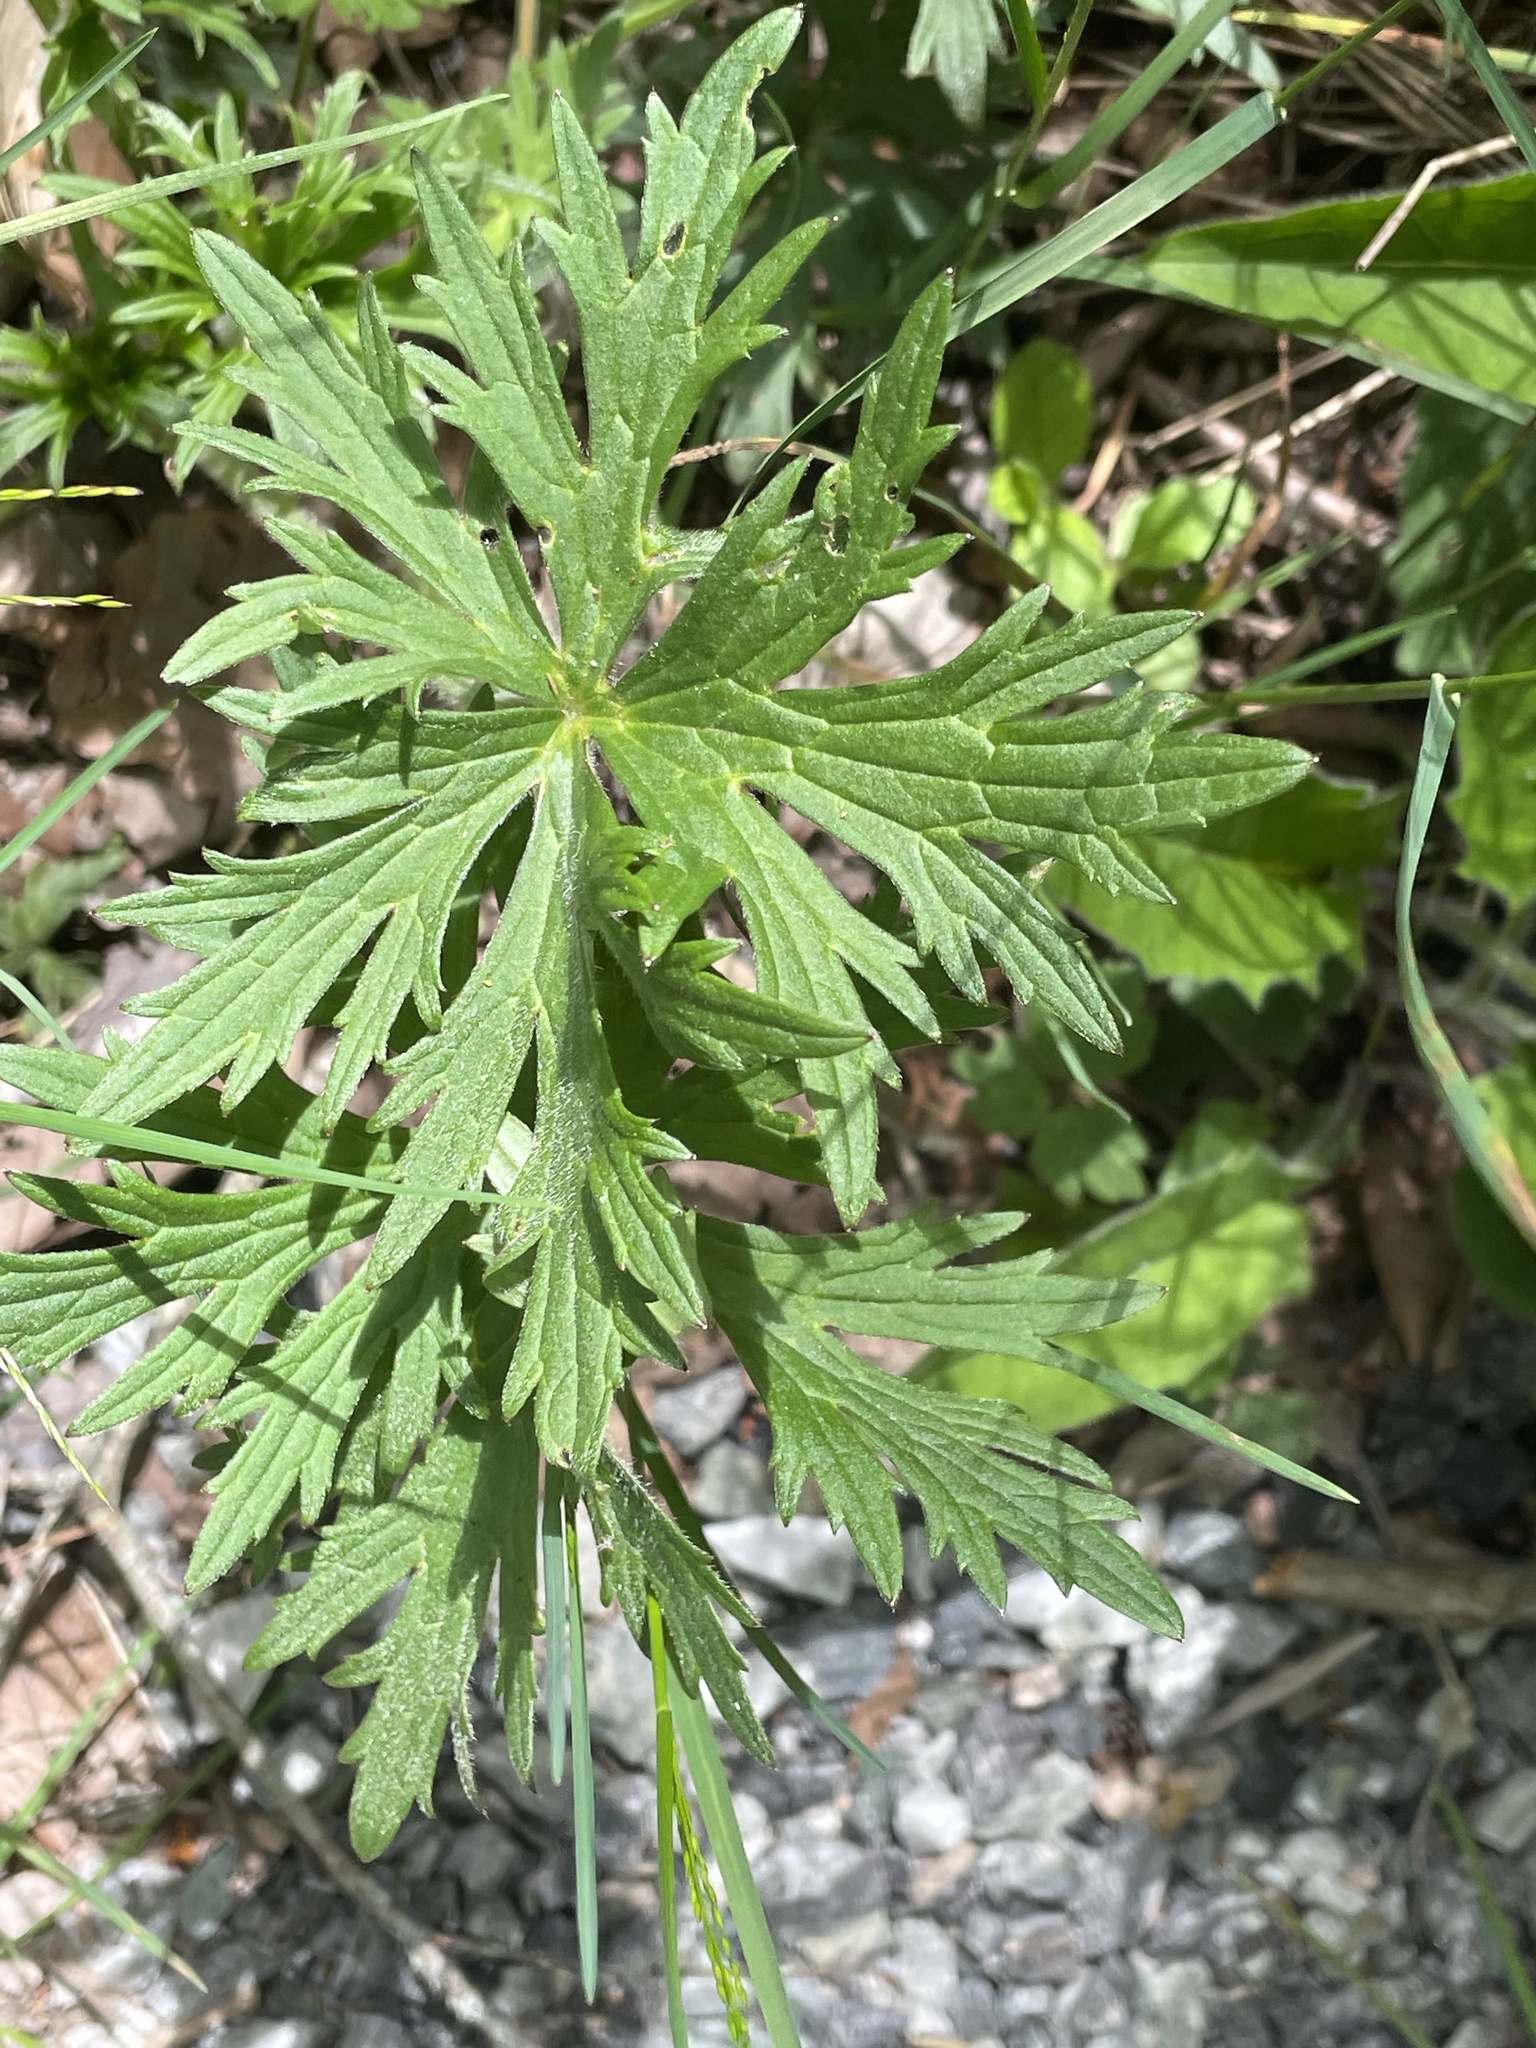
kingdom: Plantae
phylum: Tracheophyta
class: Magnoliopsida
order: Ranunculales
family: Ranunculaceae
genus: Ranunculus
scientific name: Ranunculus acris
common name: Meadow buttercup
